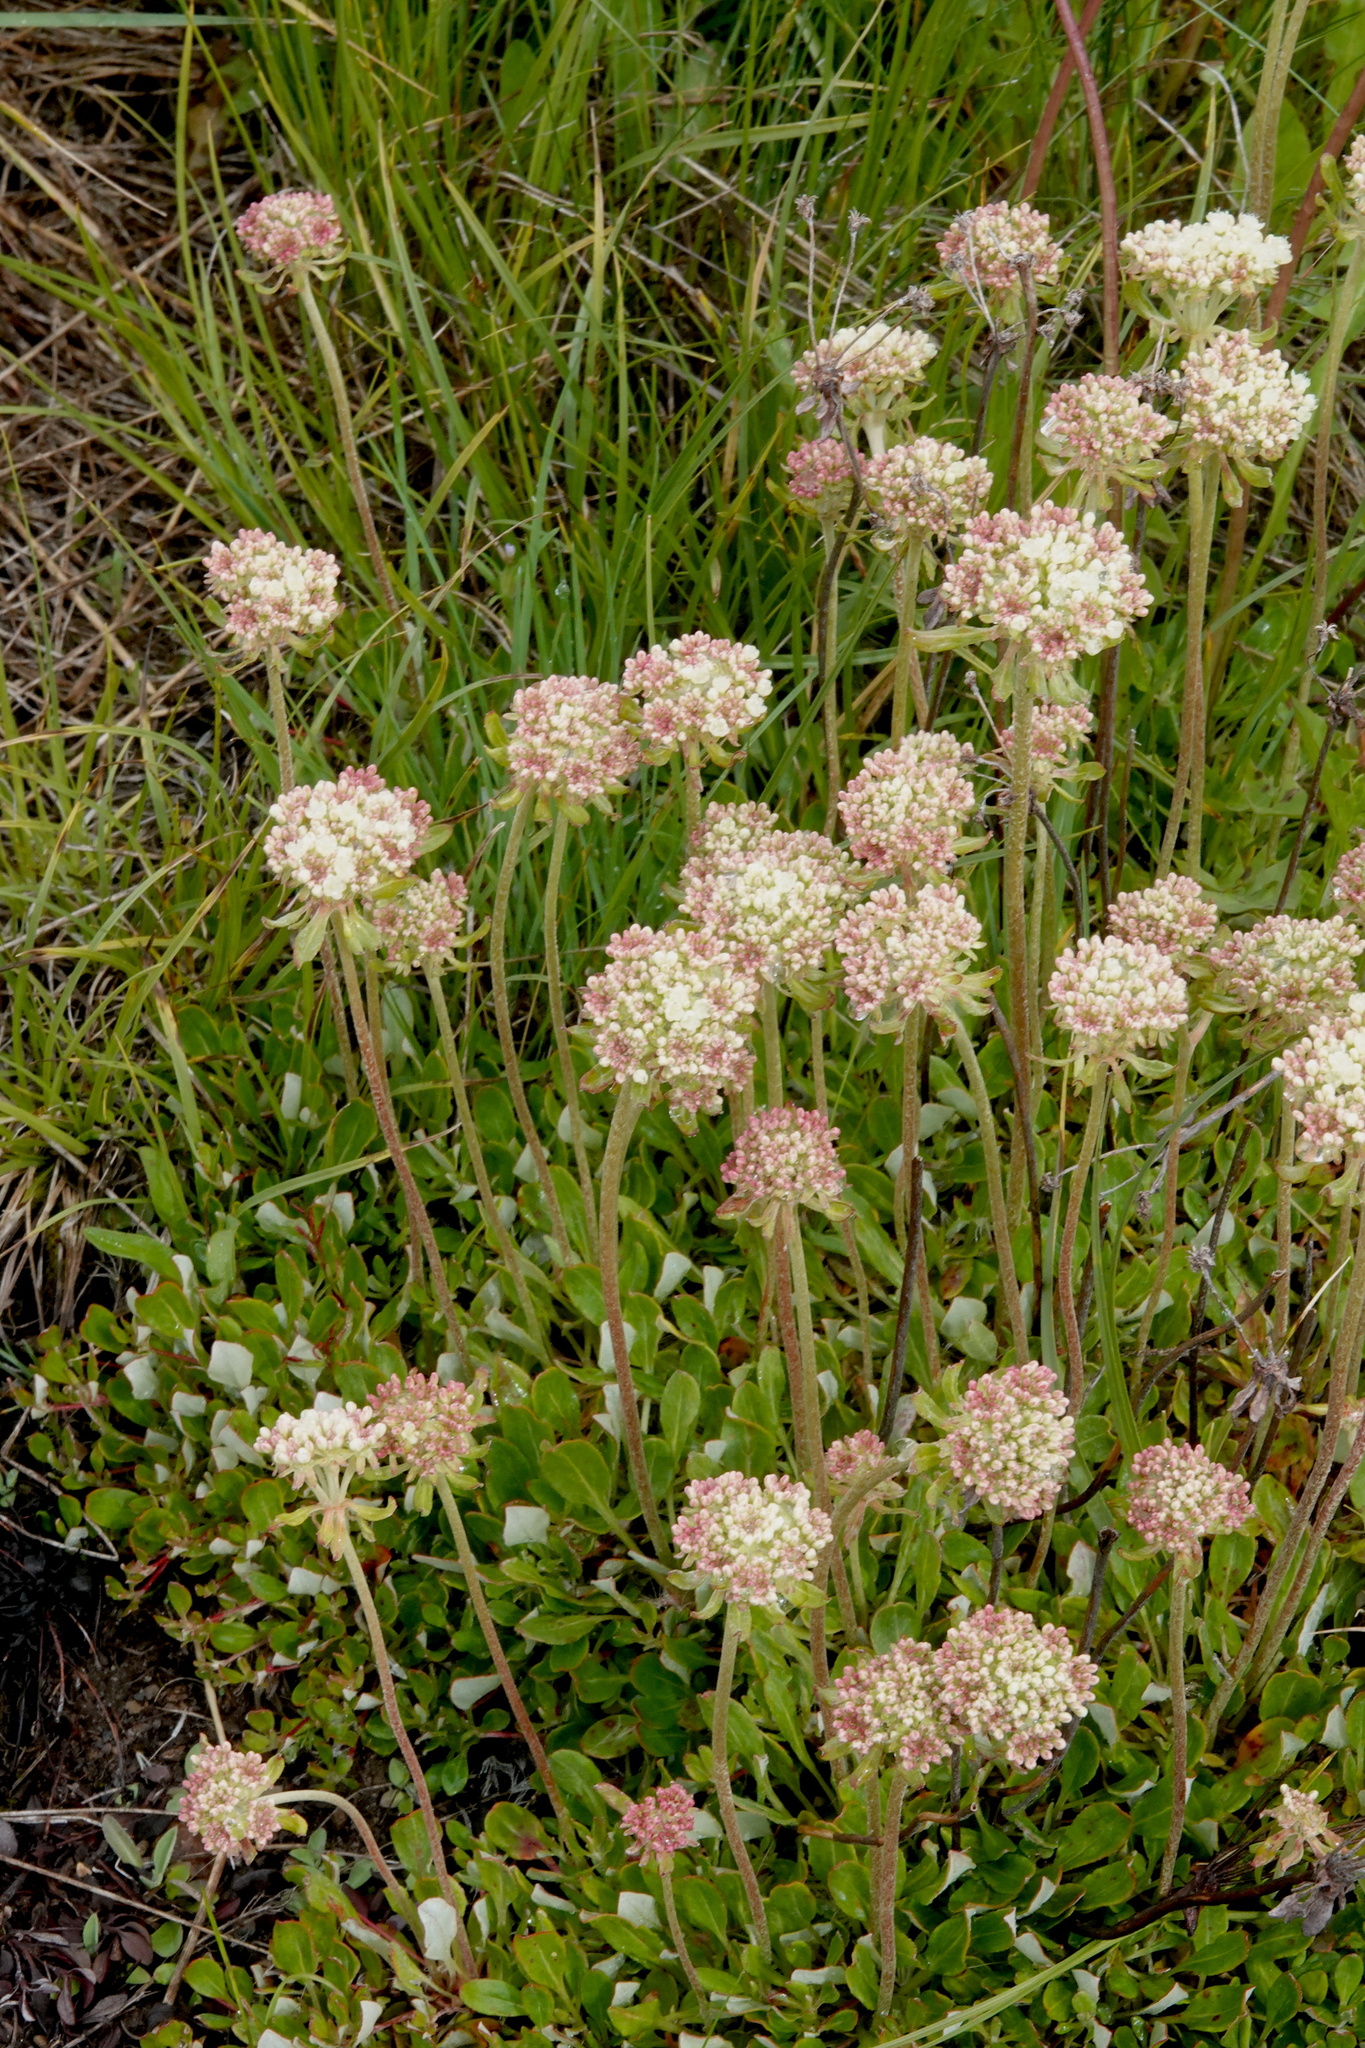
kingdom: Plantae
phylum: Tracheophyta
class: Magnoliopsida
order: Caryophyllales
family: Polygonaceae
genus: Eriogonum
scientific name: Eriogonum umbellatum
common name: Sulfur-buckwheat
